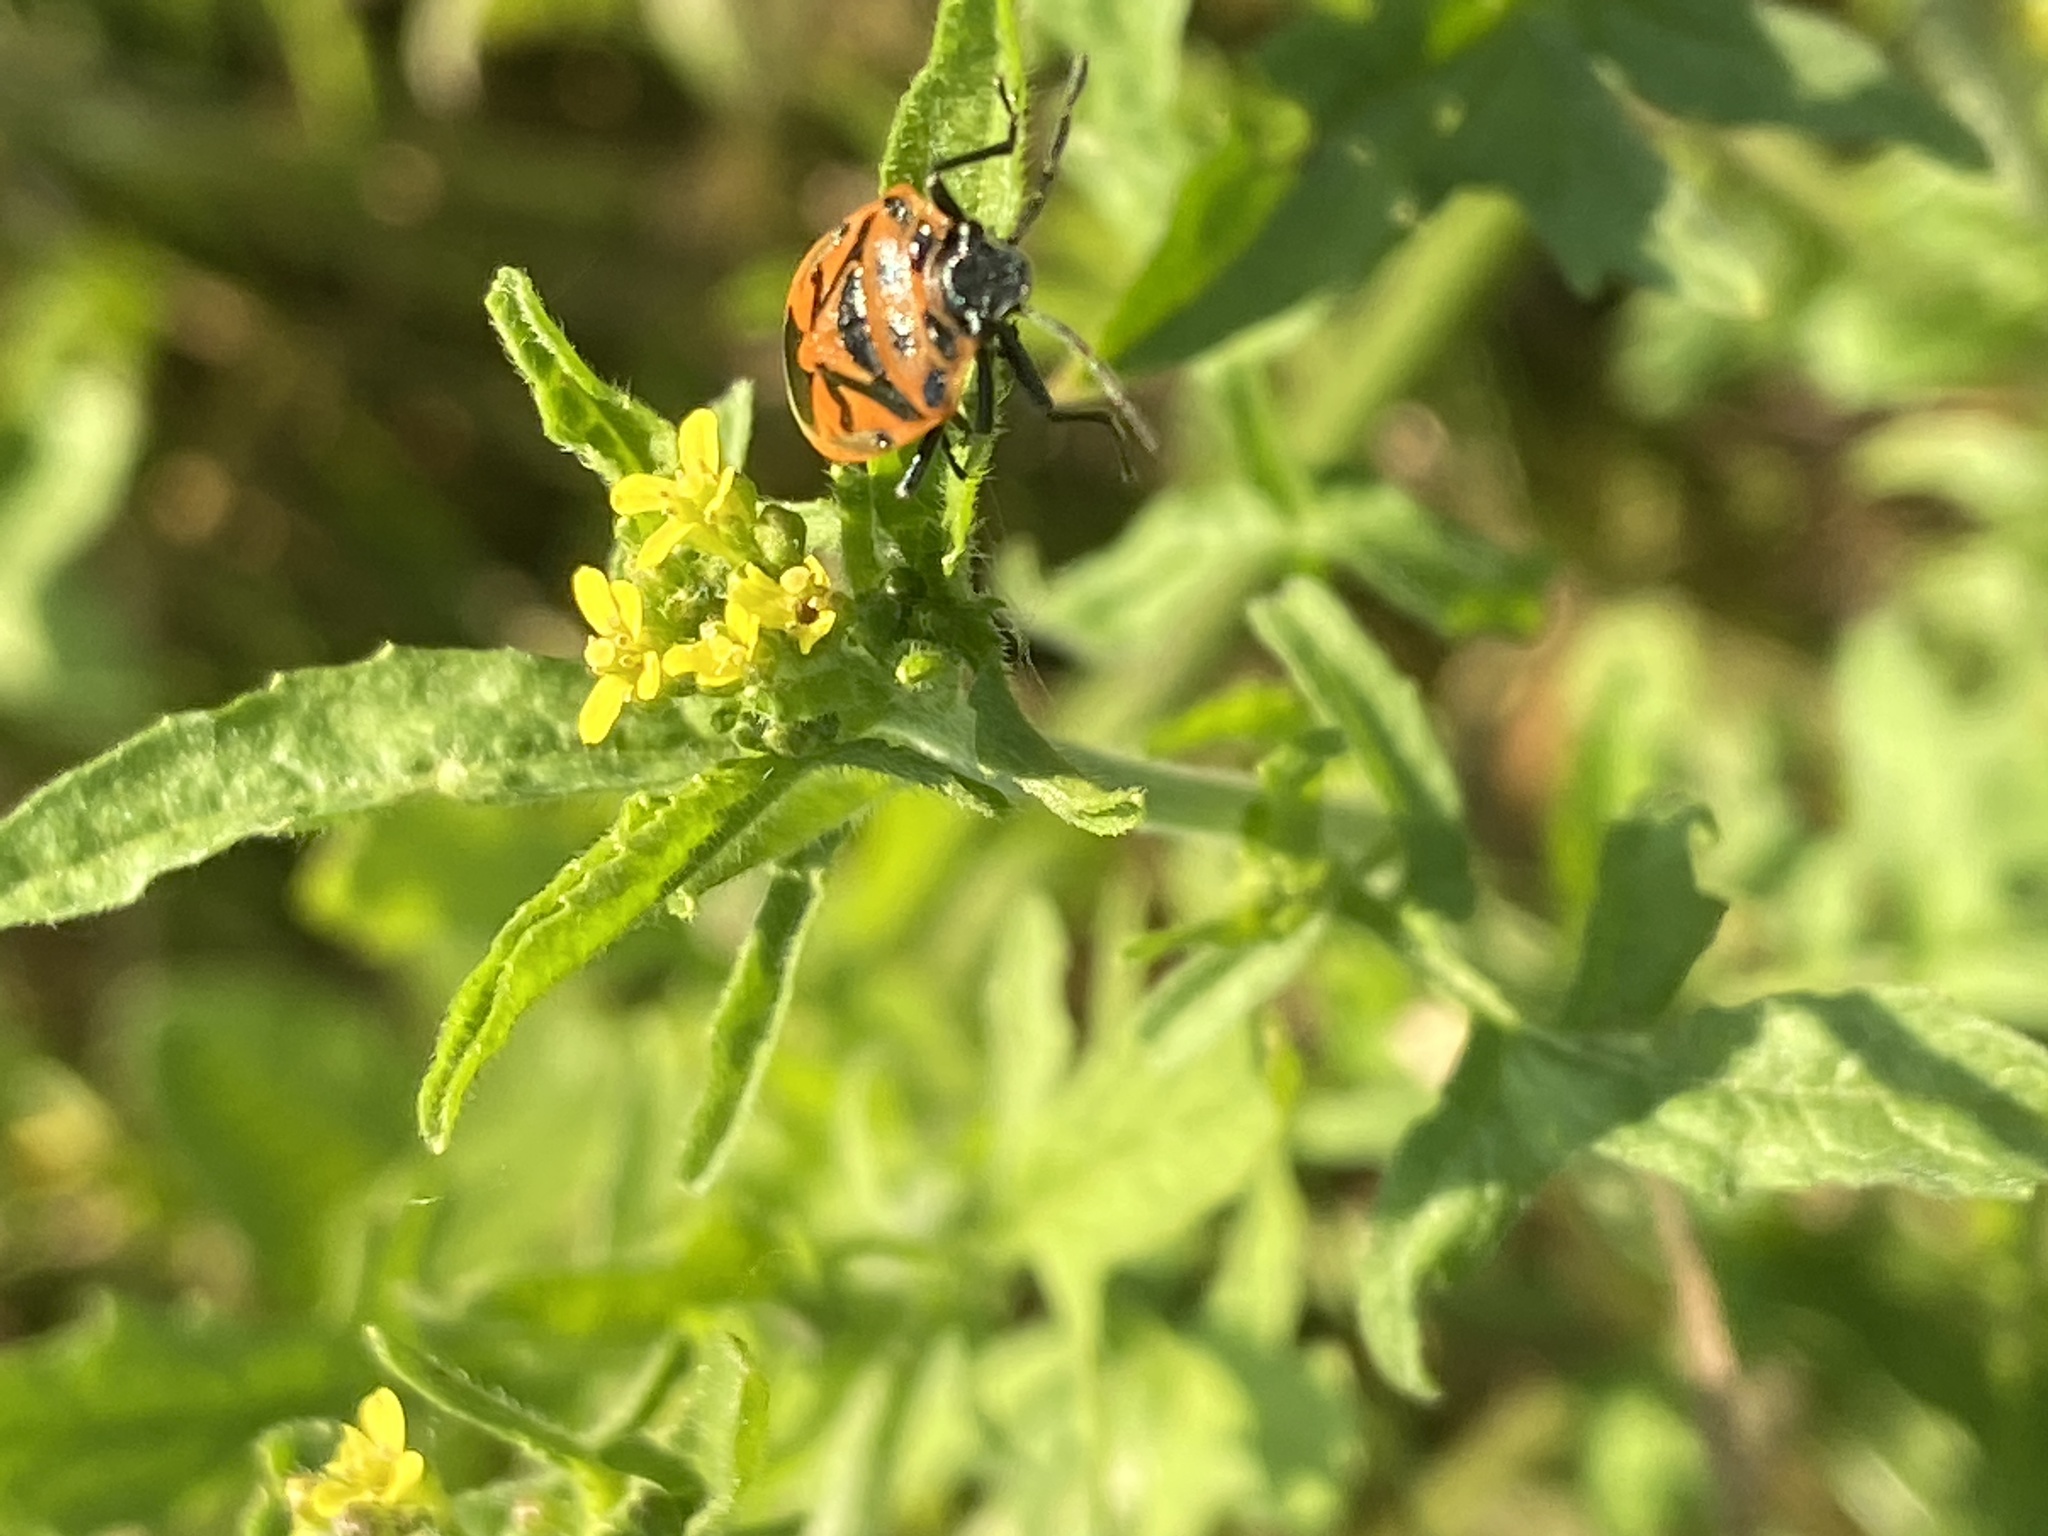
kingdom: Animalia
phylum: Arthropoda
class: Insecta
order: Hemiptera
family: Pentatomidae
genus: Eurydema
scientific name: Eurydema ornata
